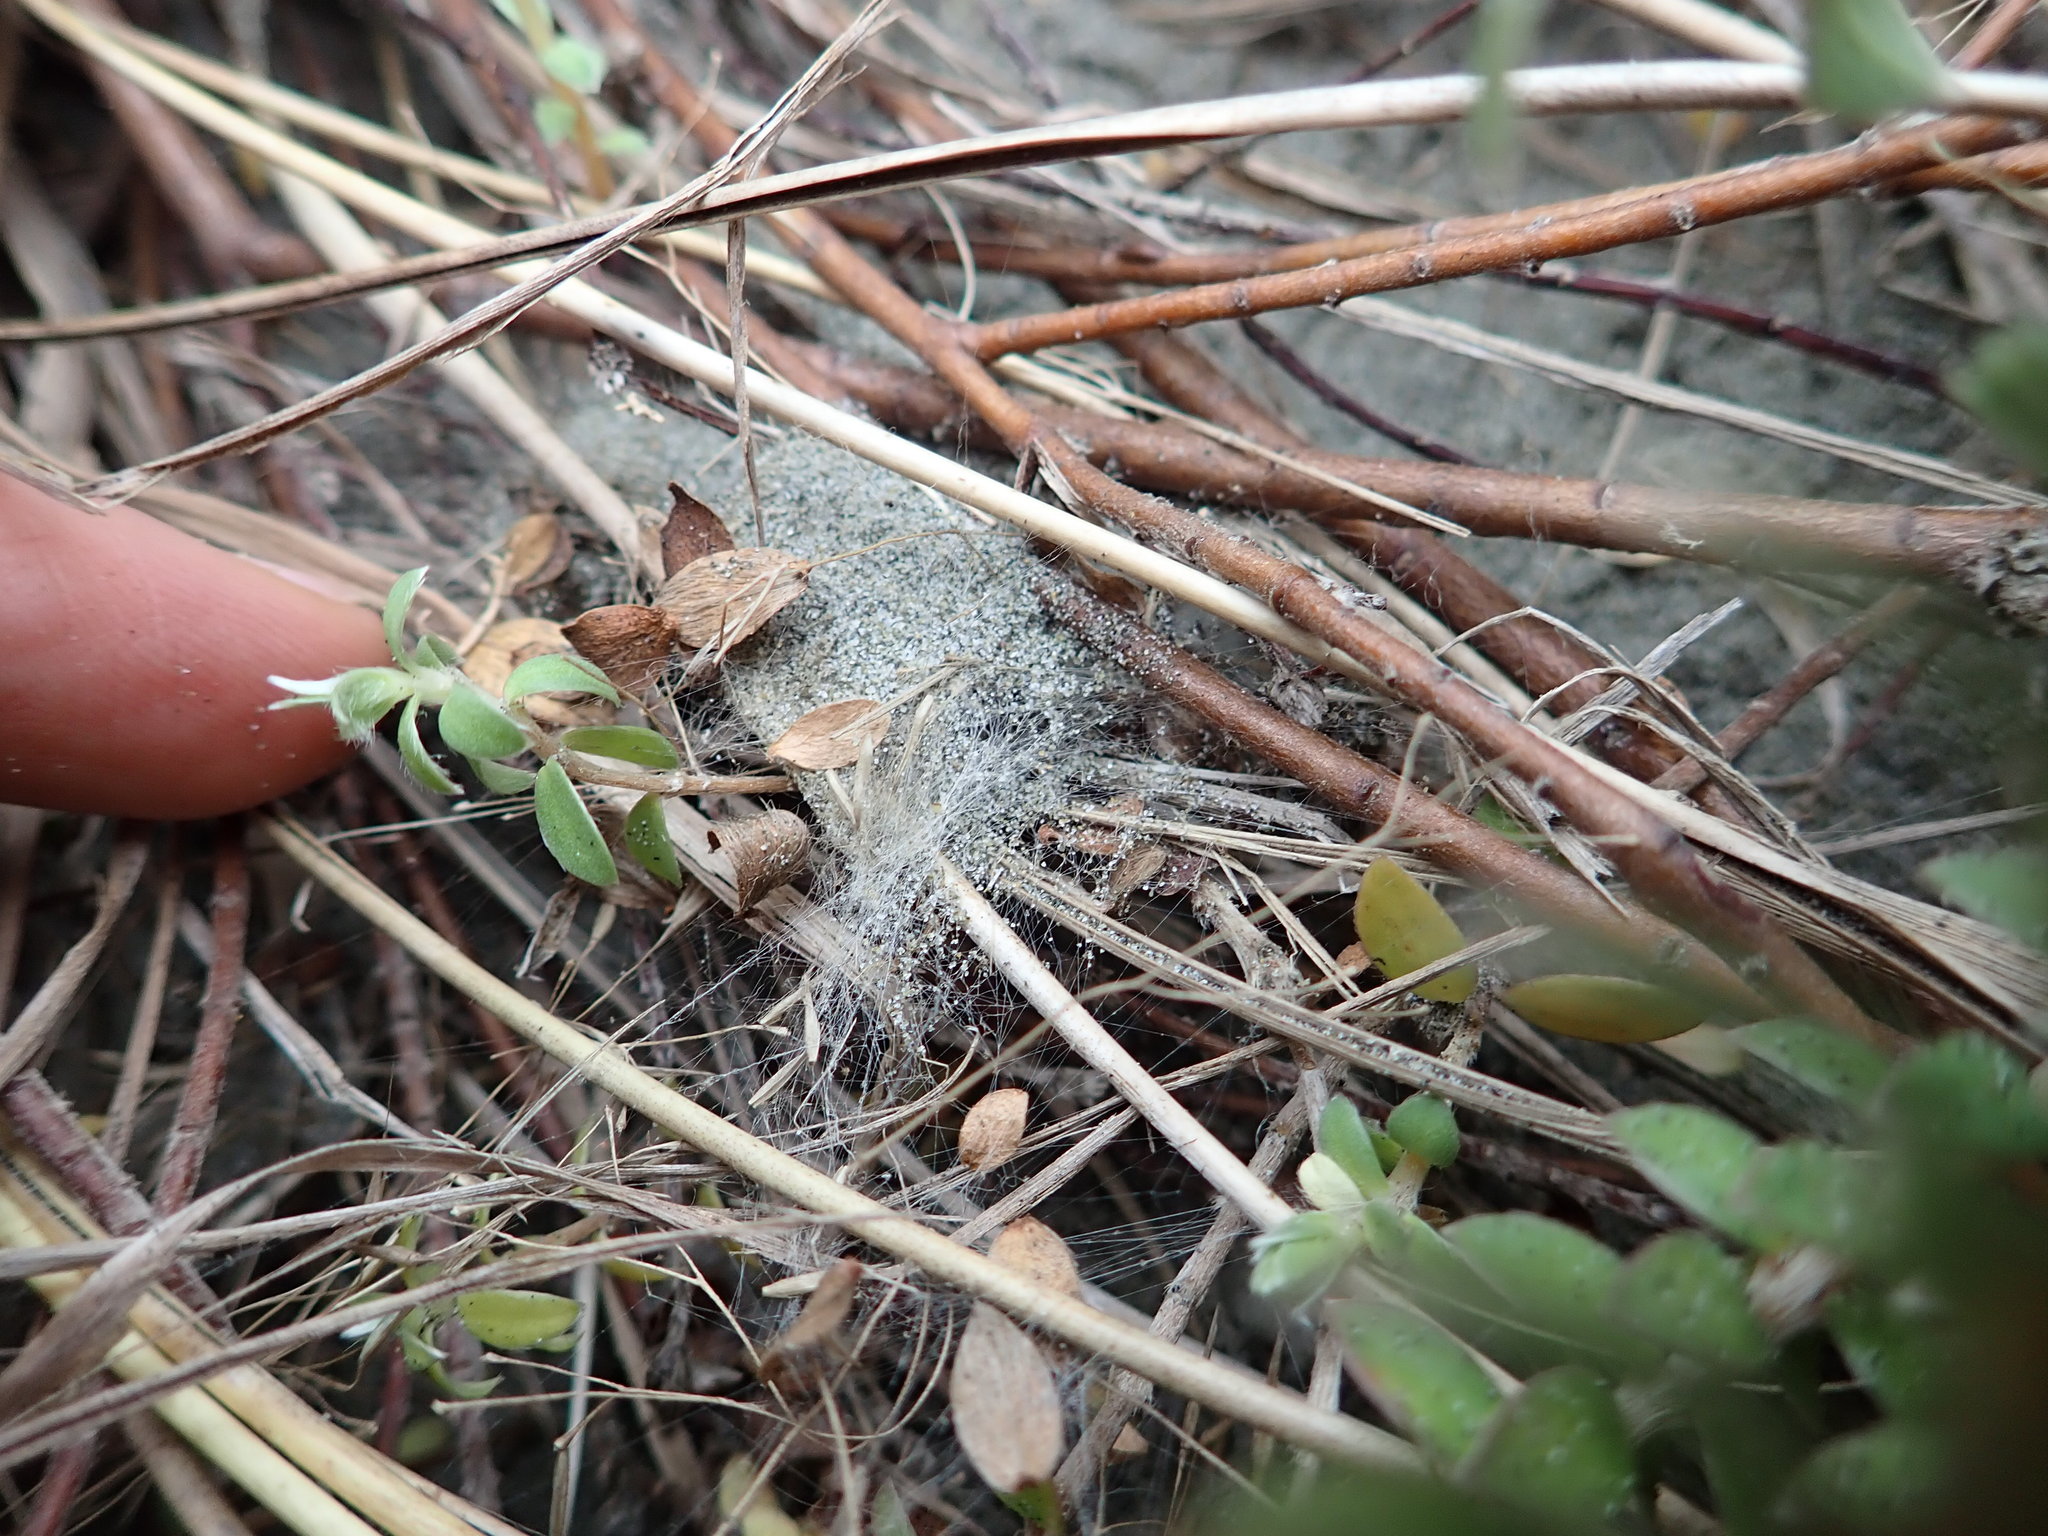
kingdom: Animalia
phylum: Arthropoda
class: Arachnida
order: Araneae
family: Theridiidae
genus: Latrodectus
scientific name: Latrodectus katipo
